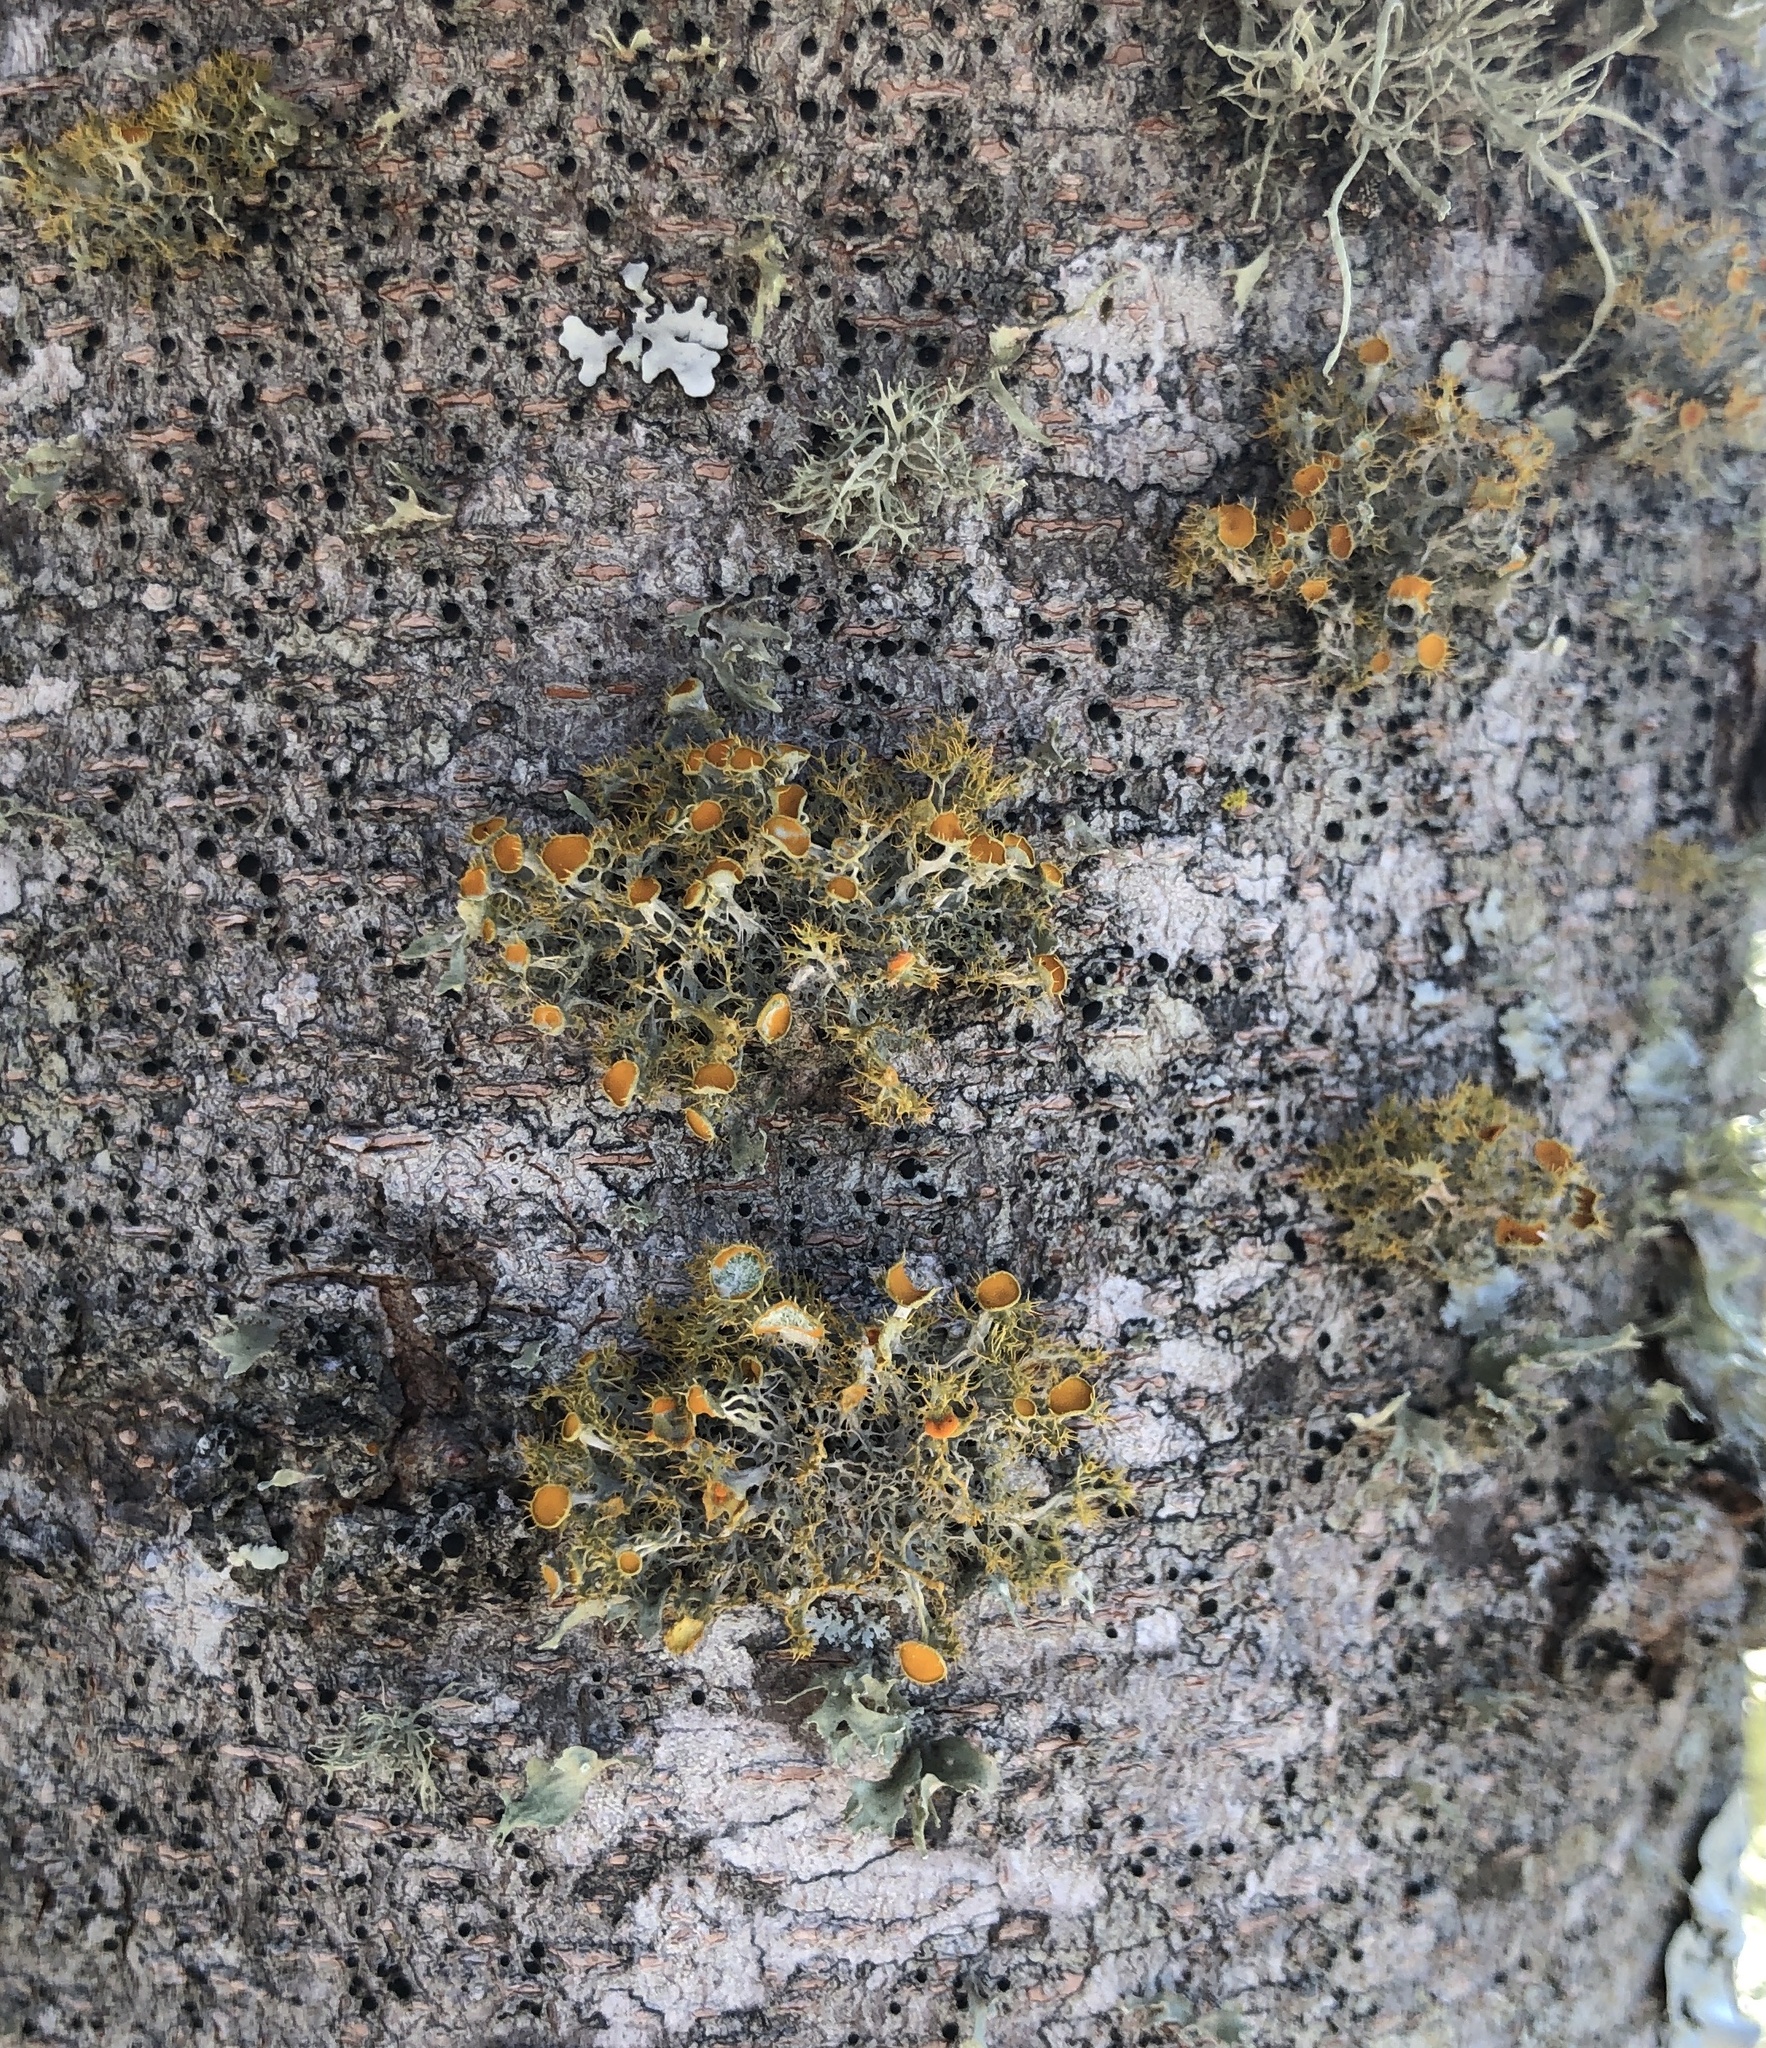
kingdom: Fungi
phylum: Ascomycota
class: Lecanoromycetes
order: Teloschistales
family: Teloschistaceae
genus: Niorma
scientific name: Niorma chrysophthalma
